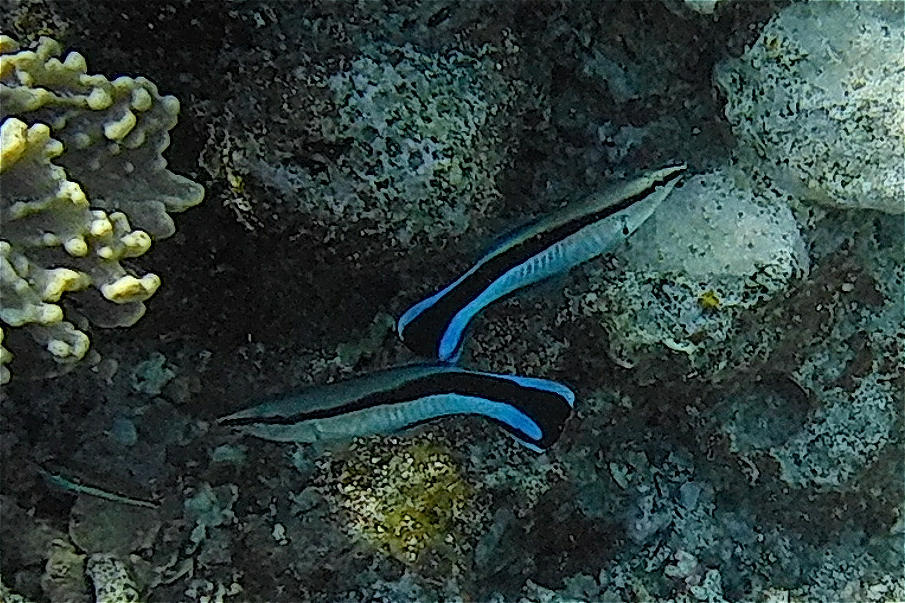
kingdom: Animalia
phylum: Chordata
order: Perciformes
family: Labridae
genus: Labroides
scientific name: Labroides dimidiatus
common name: Blue diesel wrasse
